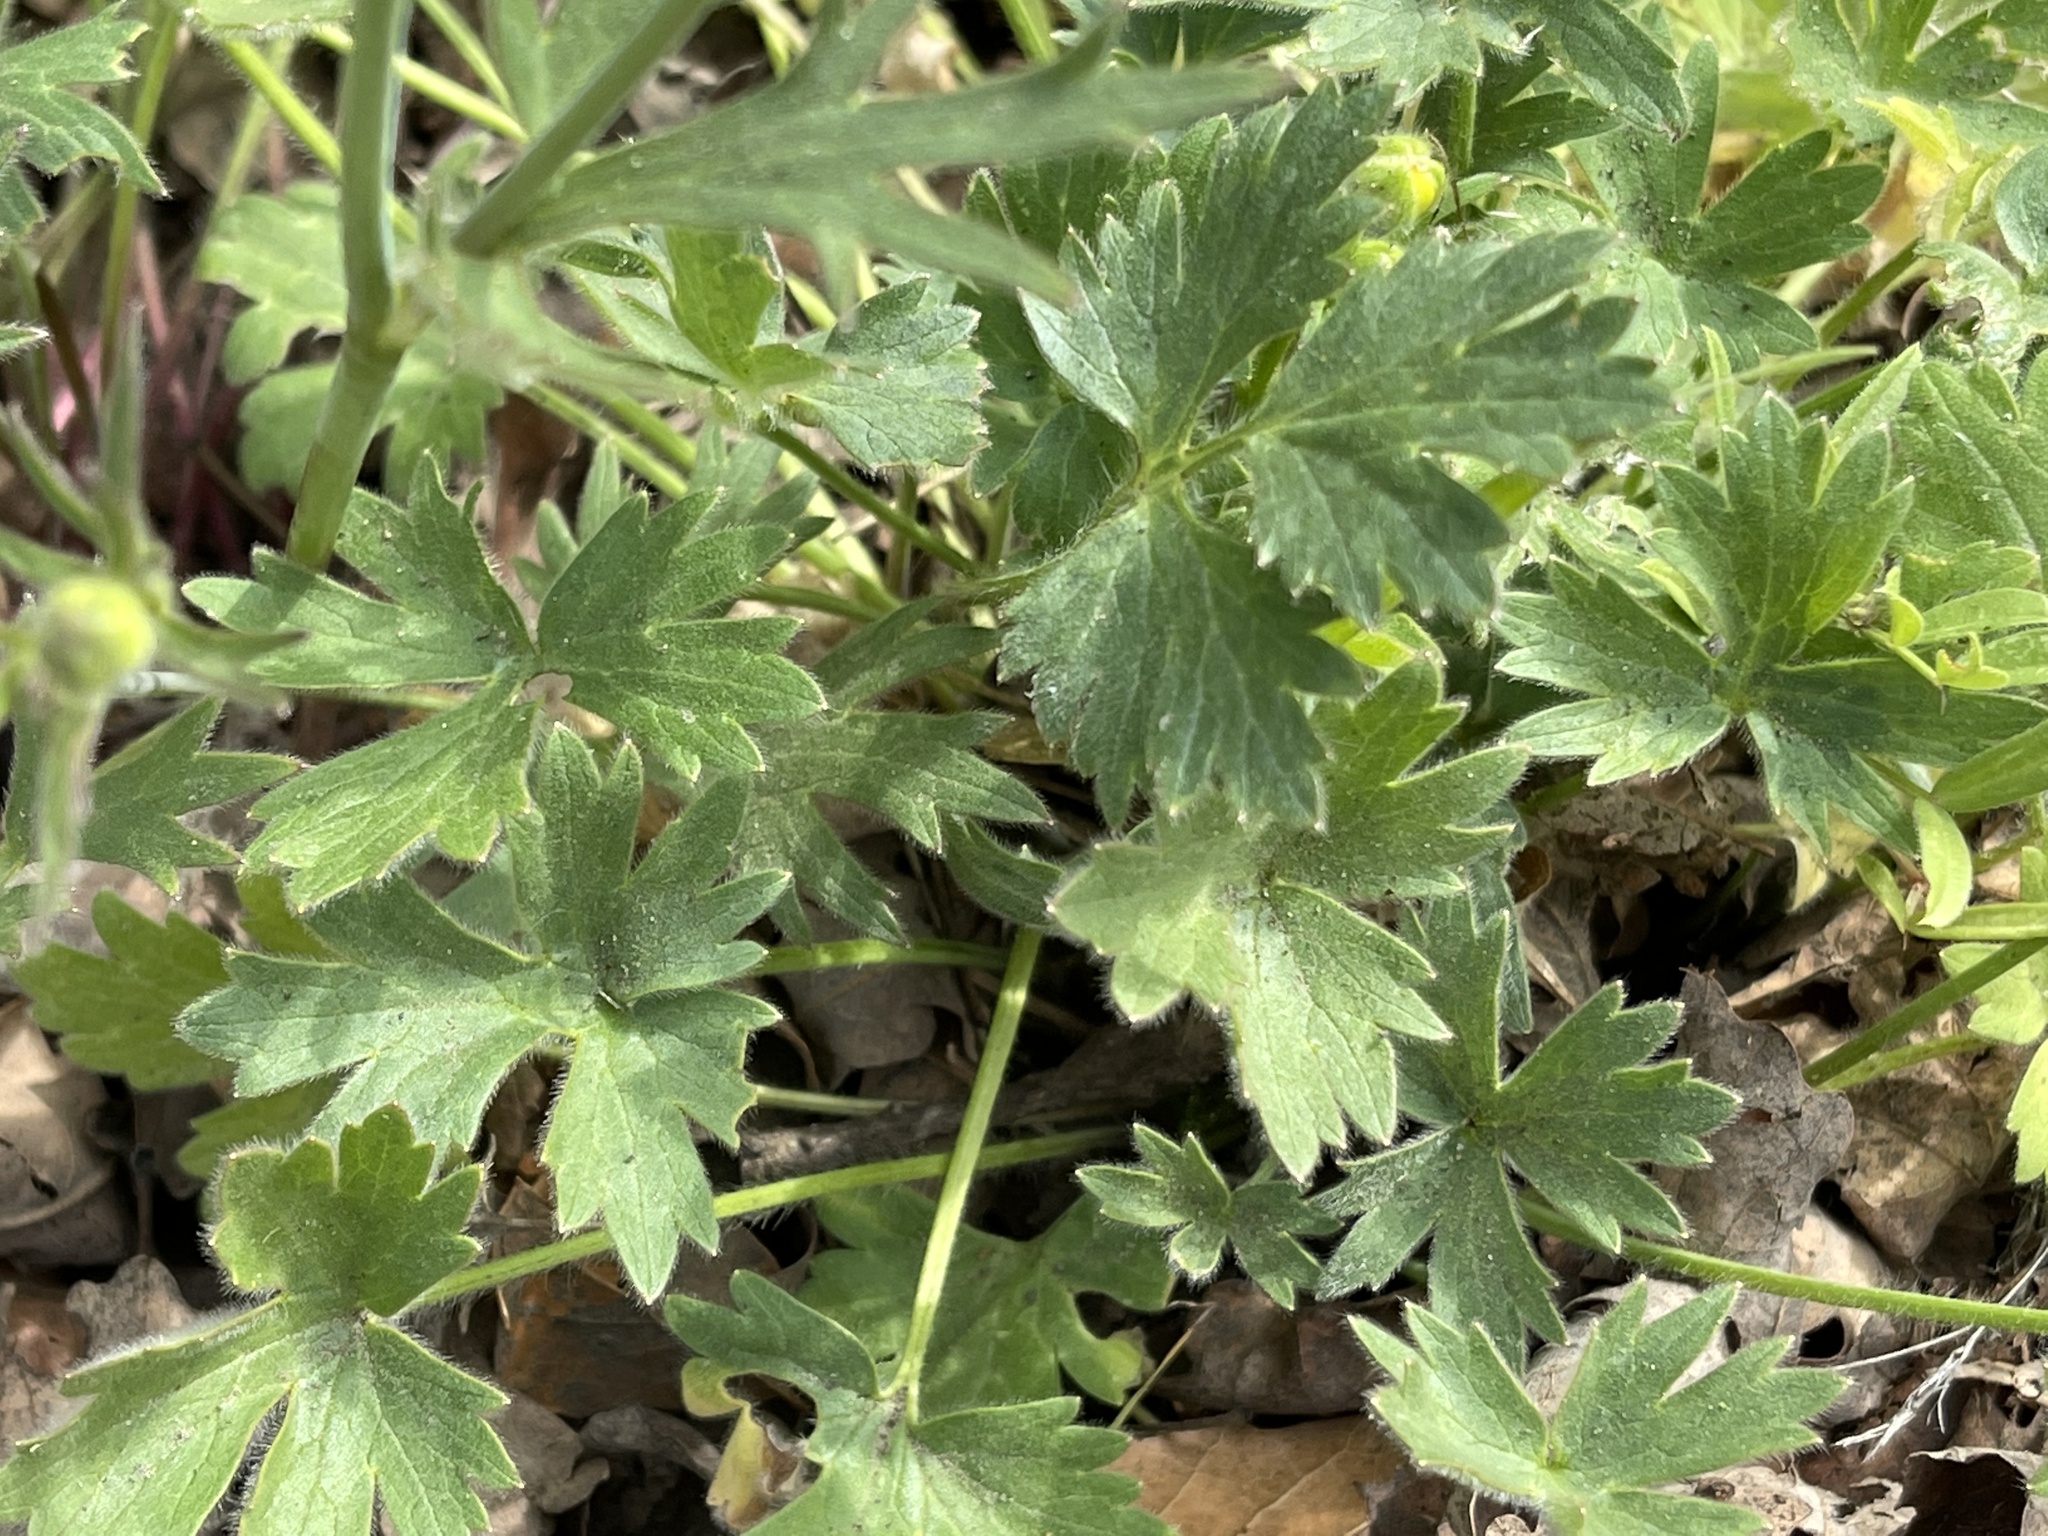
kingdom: Plantae
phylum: Tracheophyta
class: Magnoliopsida
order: Ranunculales
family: Ranunculaceae
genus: Ranunculus
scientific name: Ranunculus californicus
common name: California buttercup
